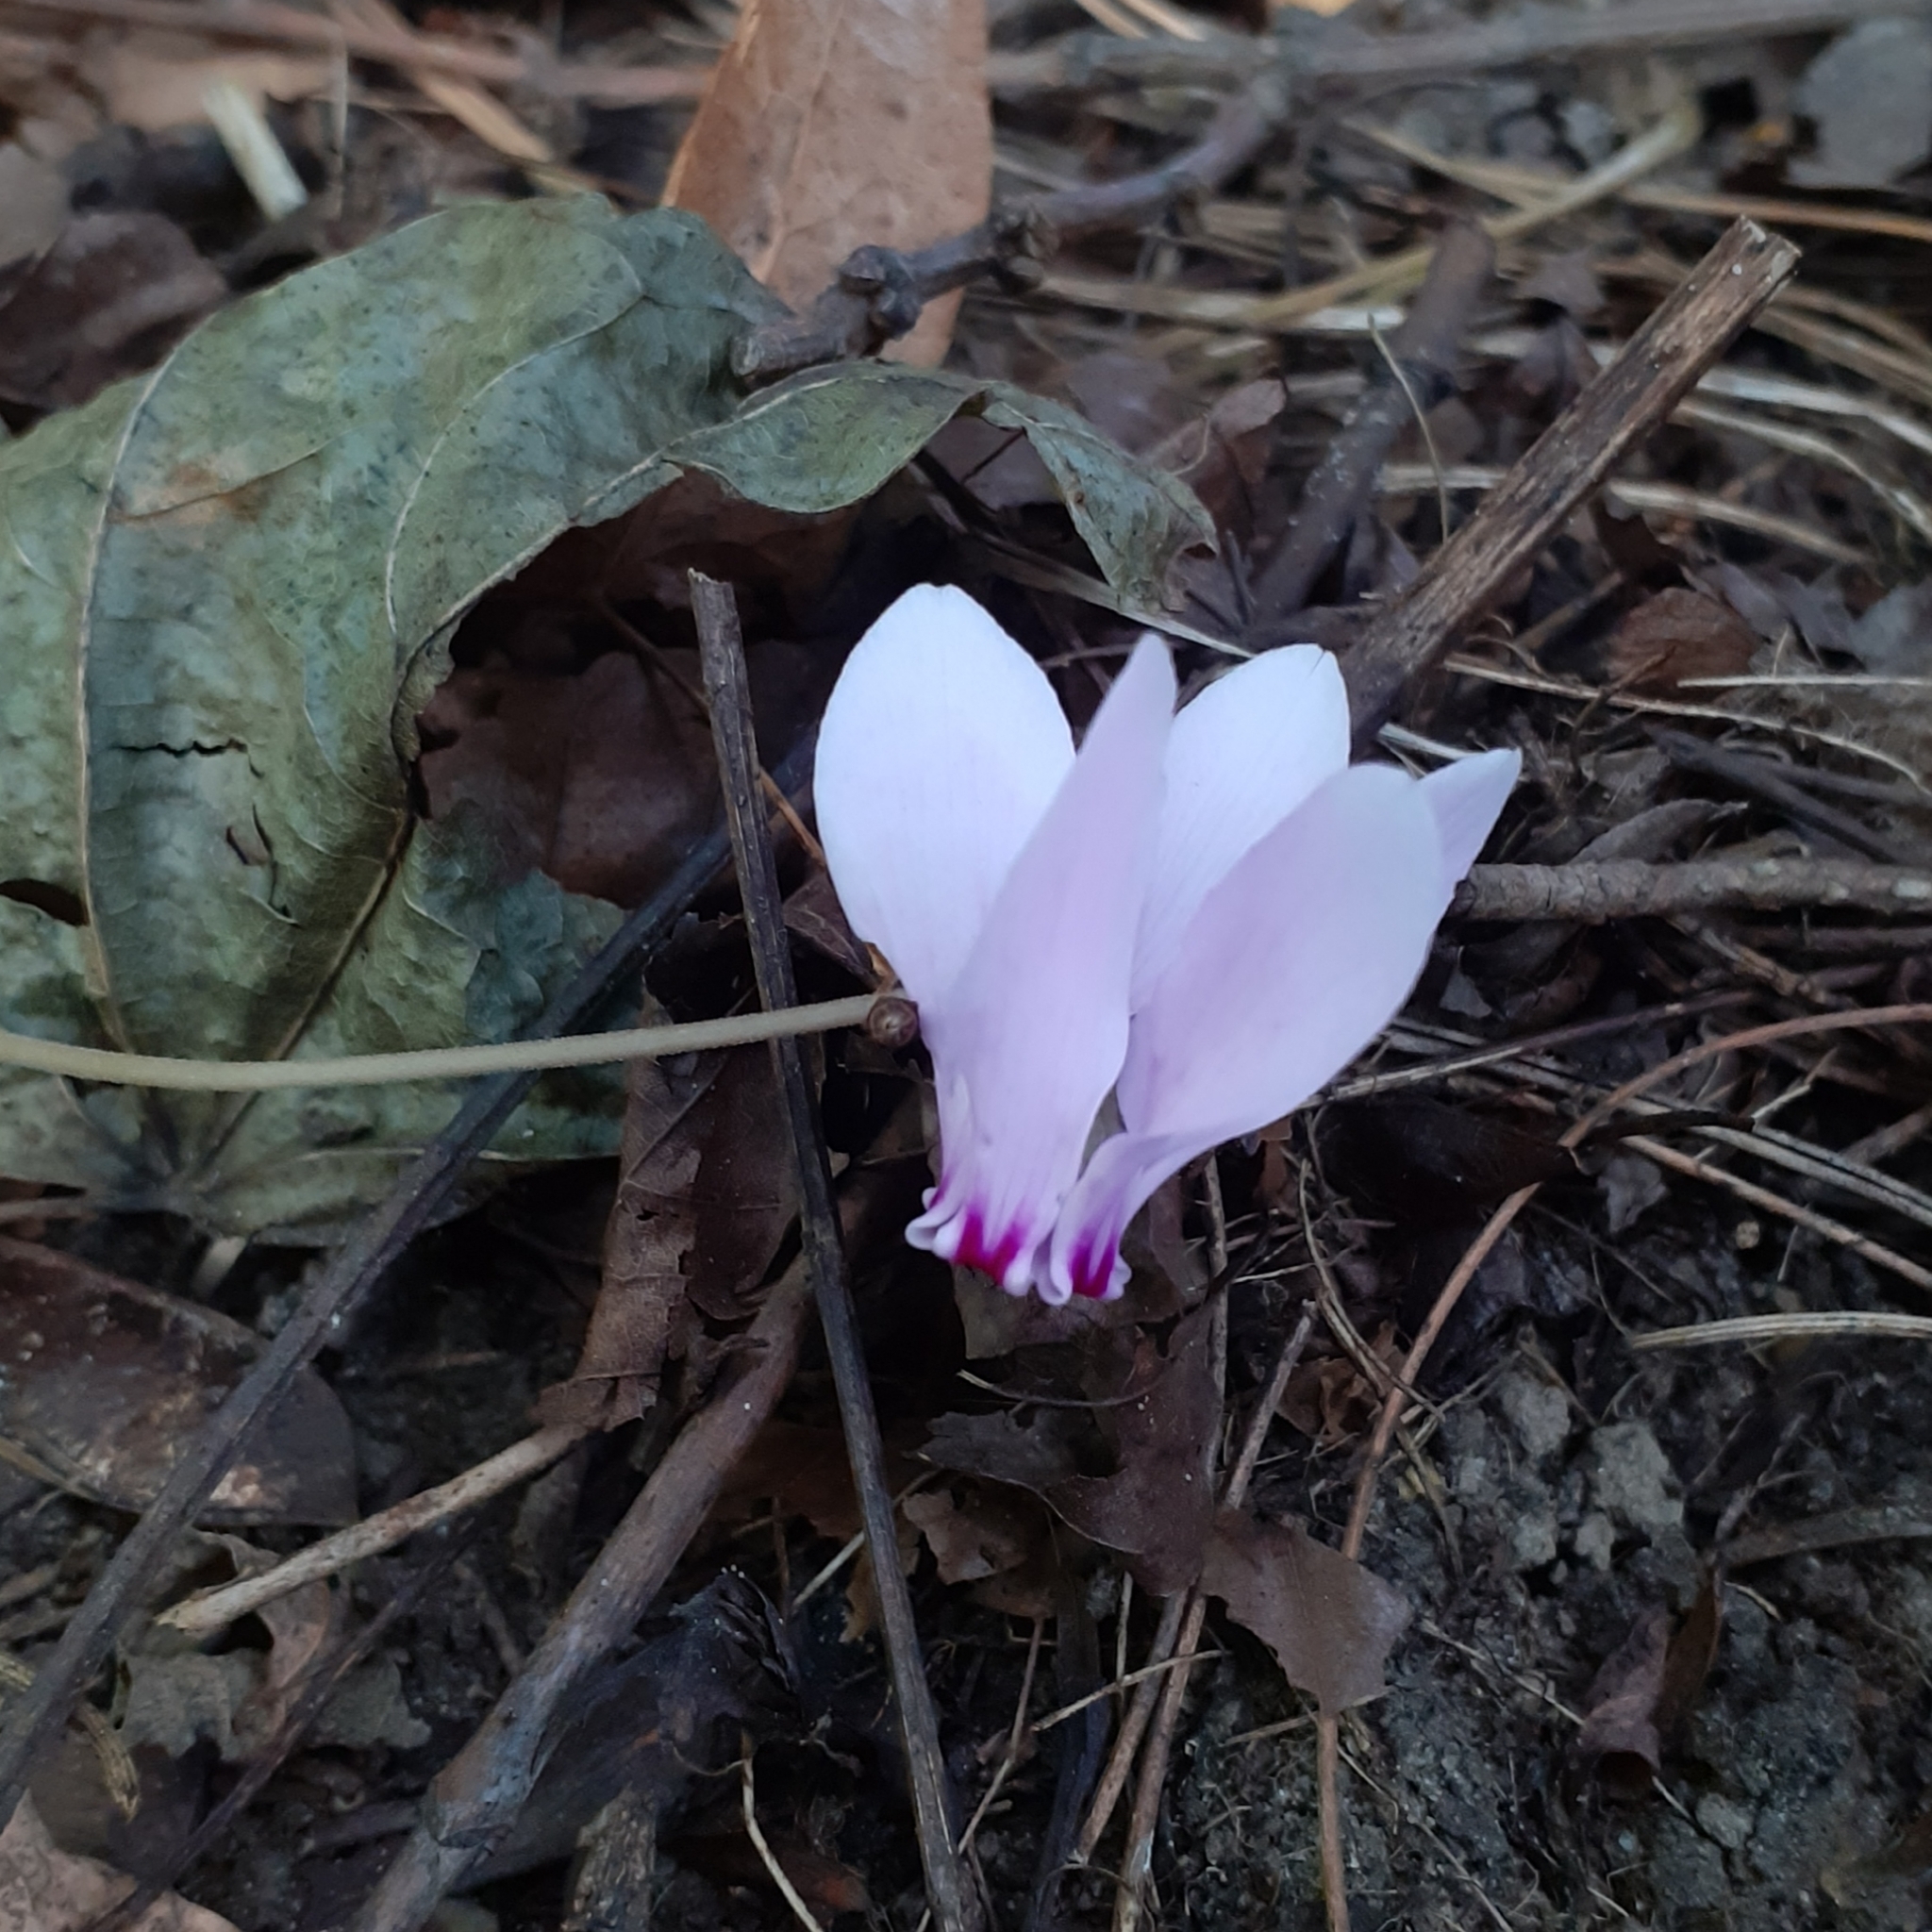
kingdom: Plantae
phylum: Tracheophyta
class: Magnoliopsida
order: Ericales
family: Primulaceae
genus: Cyclamen
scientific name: Cyclamen hederifolium
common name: Sowbread
